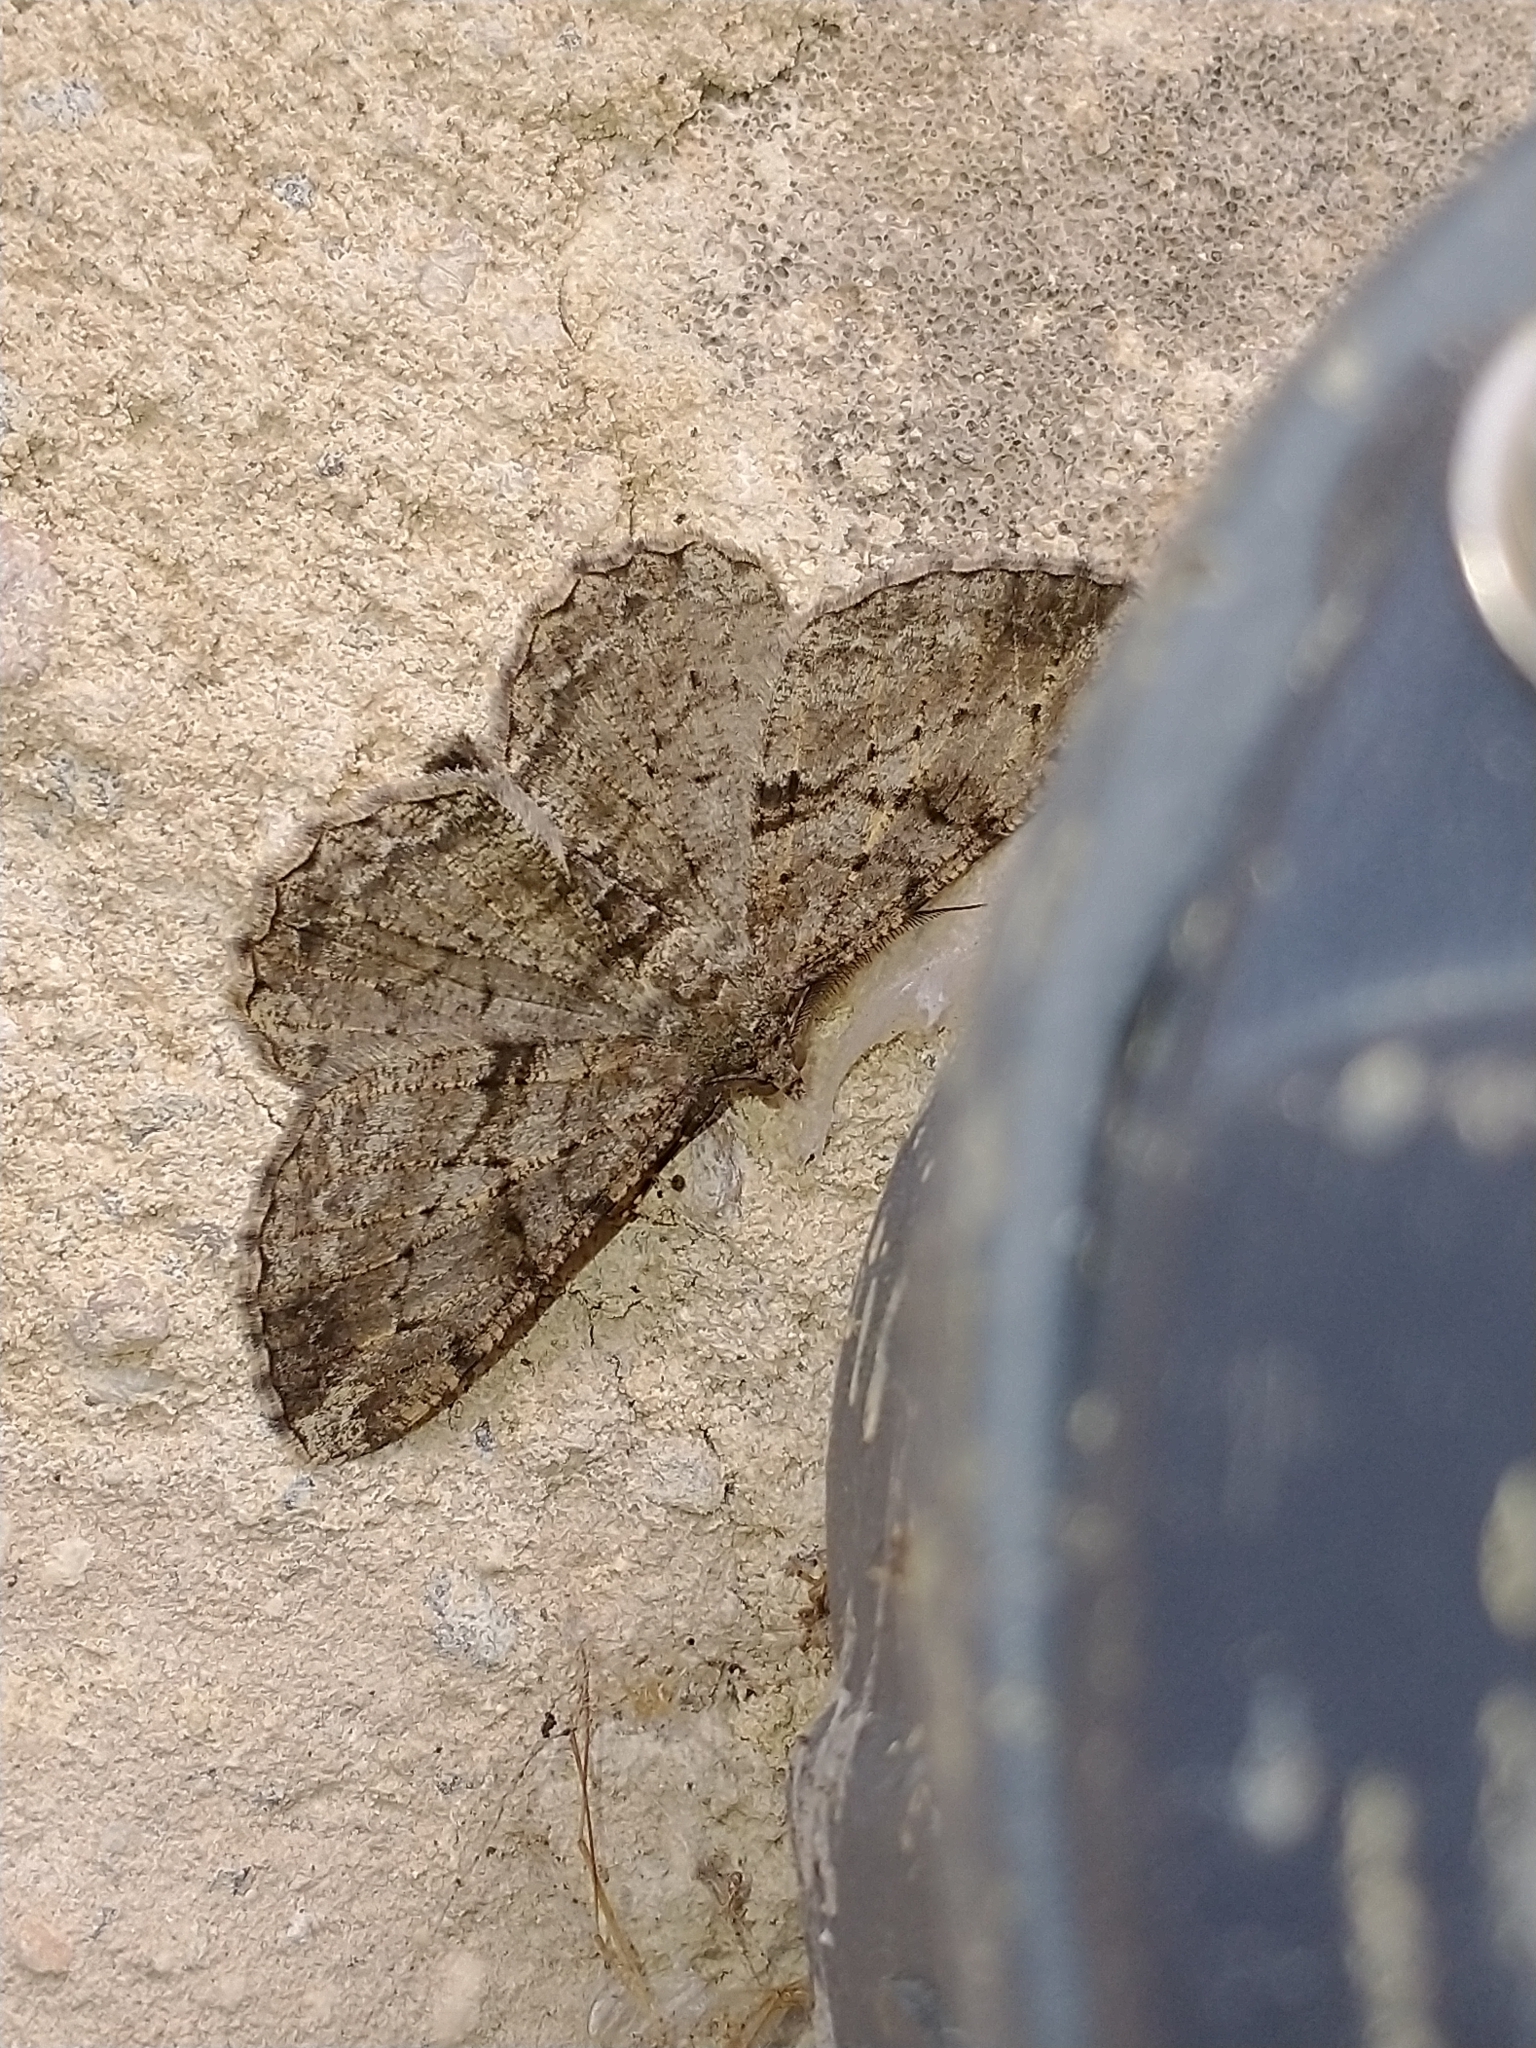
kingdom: Animalia
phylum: Arthropoda
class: Insecta
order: Lepidoptera
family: Geometridae
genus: Peribatodes
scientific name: Peribatodes rhomboidaria
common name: Willow beauty
